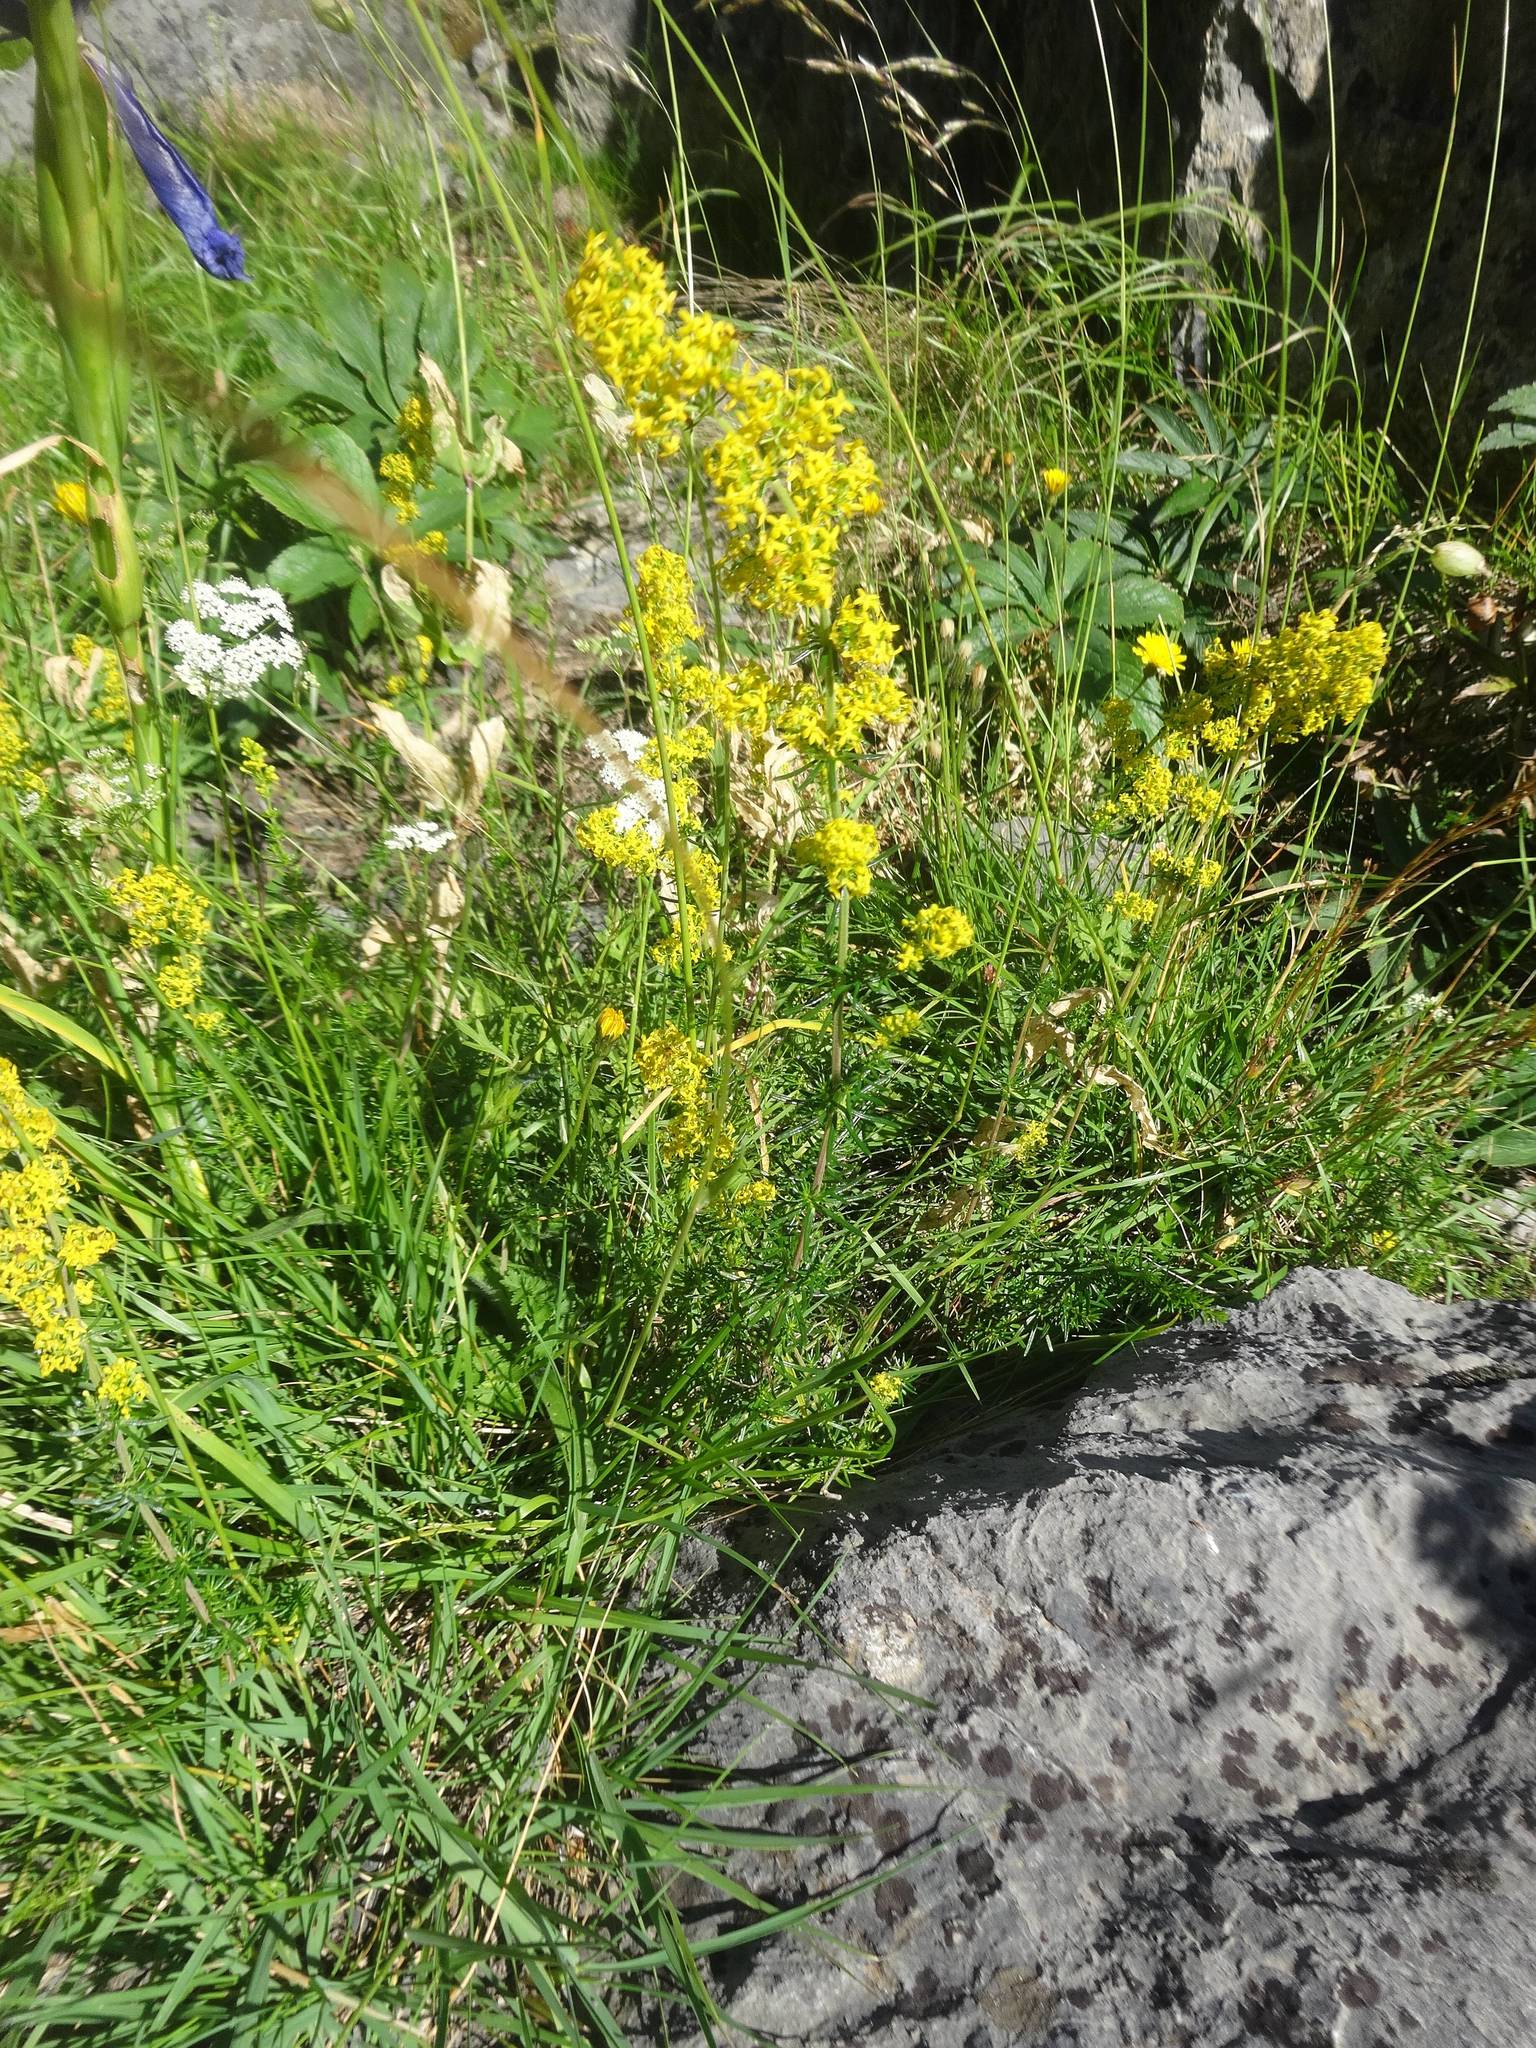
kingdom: Plantae
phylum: Tracheophyta
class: Magnoliopsida
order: Gentianales
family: Rubiaceae
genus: Galium
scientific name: Galium verum
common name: Lady's bedstraw
